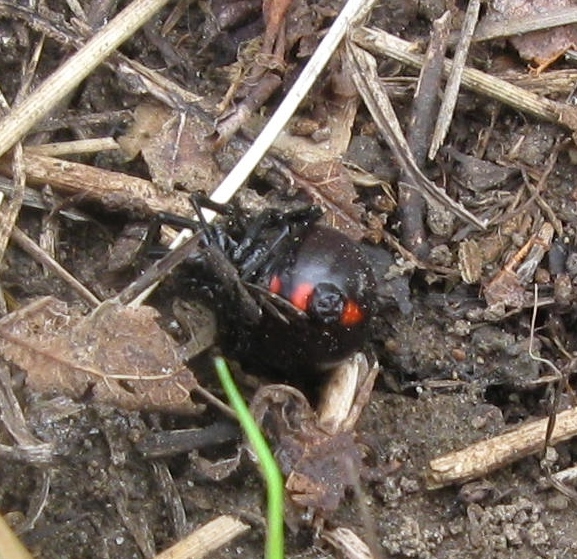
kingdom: Animalia
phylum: Arthropoda
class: Arachnida
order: Araneae
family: Theridiidae
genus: Latrodectus
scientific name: Latrodectus variolus
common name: Northern black widow
